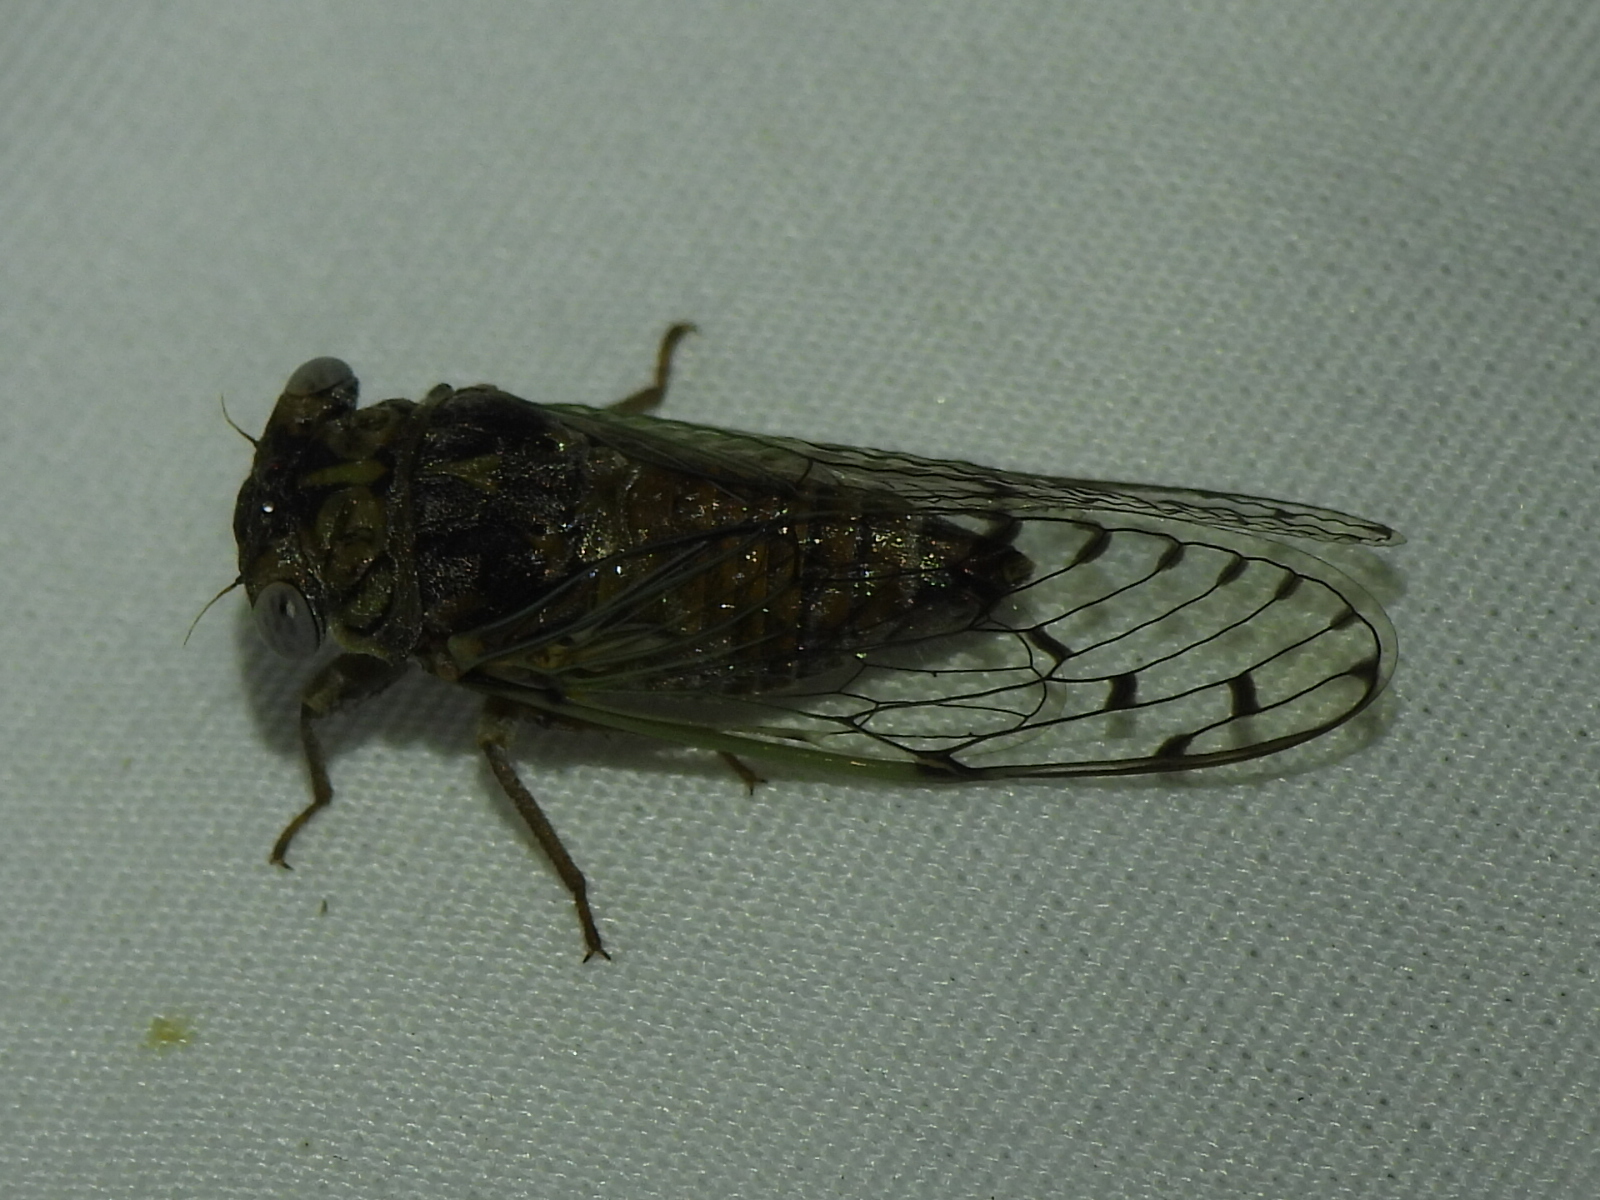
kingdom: Animalia
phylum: Arthropoda
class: Insecta
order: Hemiptera
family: Cicadidae
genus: Pacarina
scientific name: Pacarina puella
